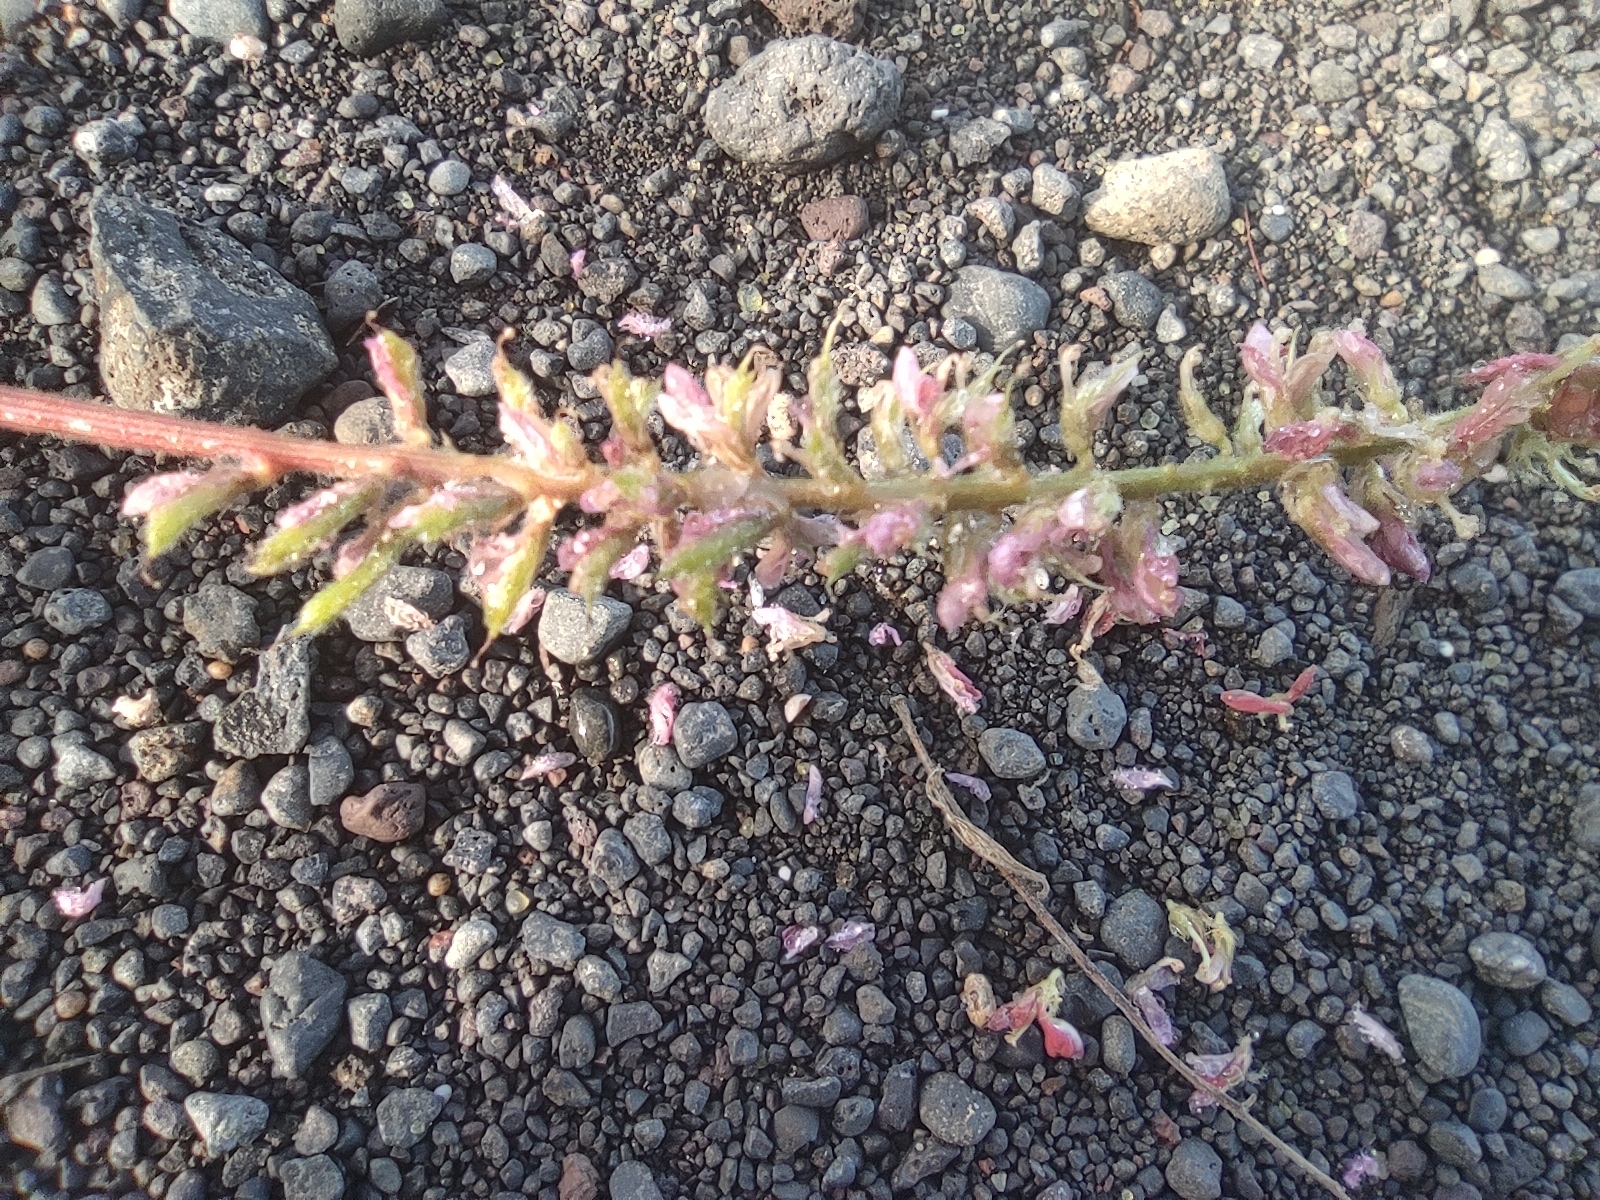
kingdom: Plantae
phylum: Tracheophyta
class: Magnoliopsida
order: Fabales
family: Fabaceae
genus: Indigofera
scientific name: Indigofera hirsuta
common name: Hairy indigo
